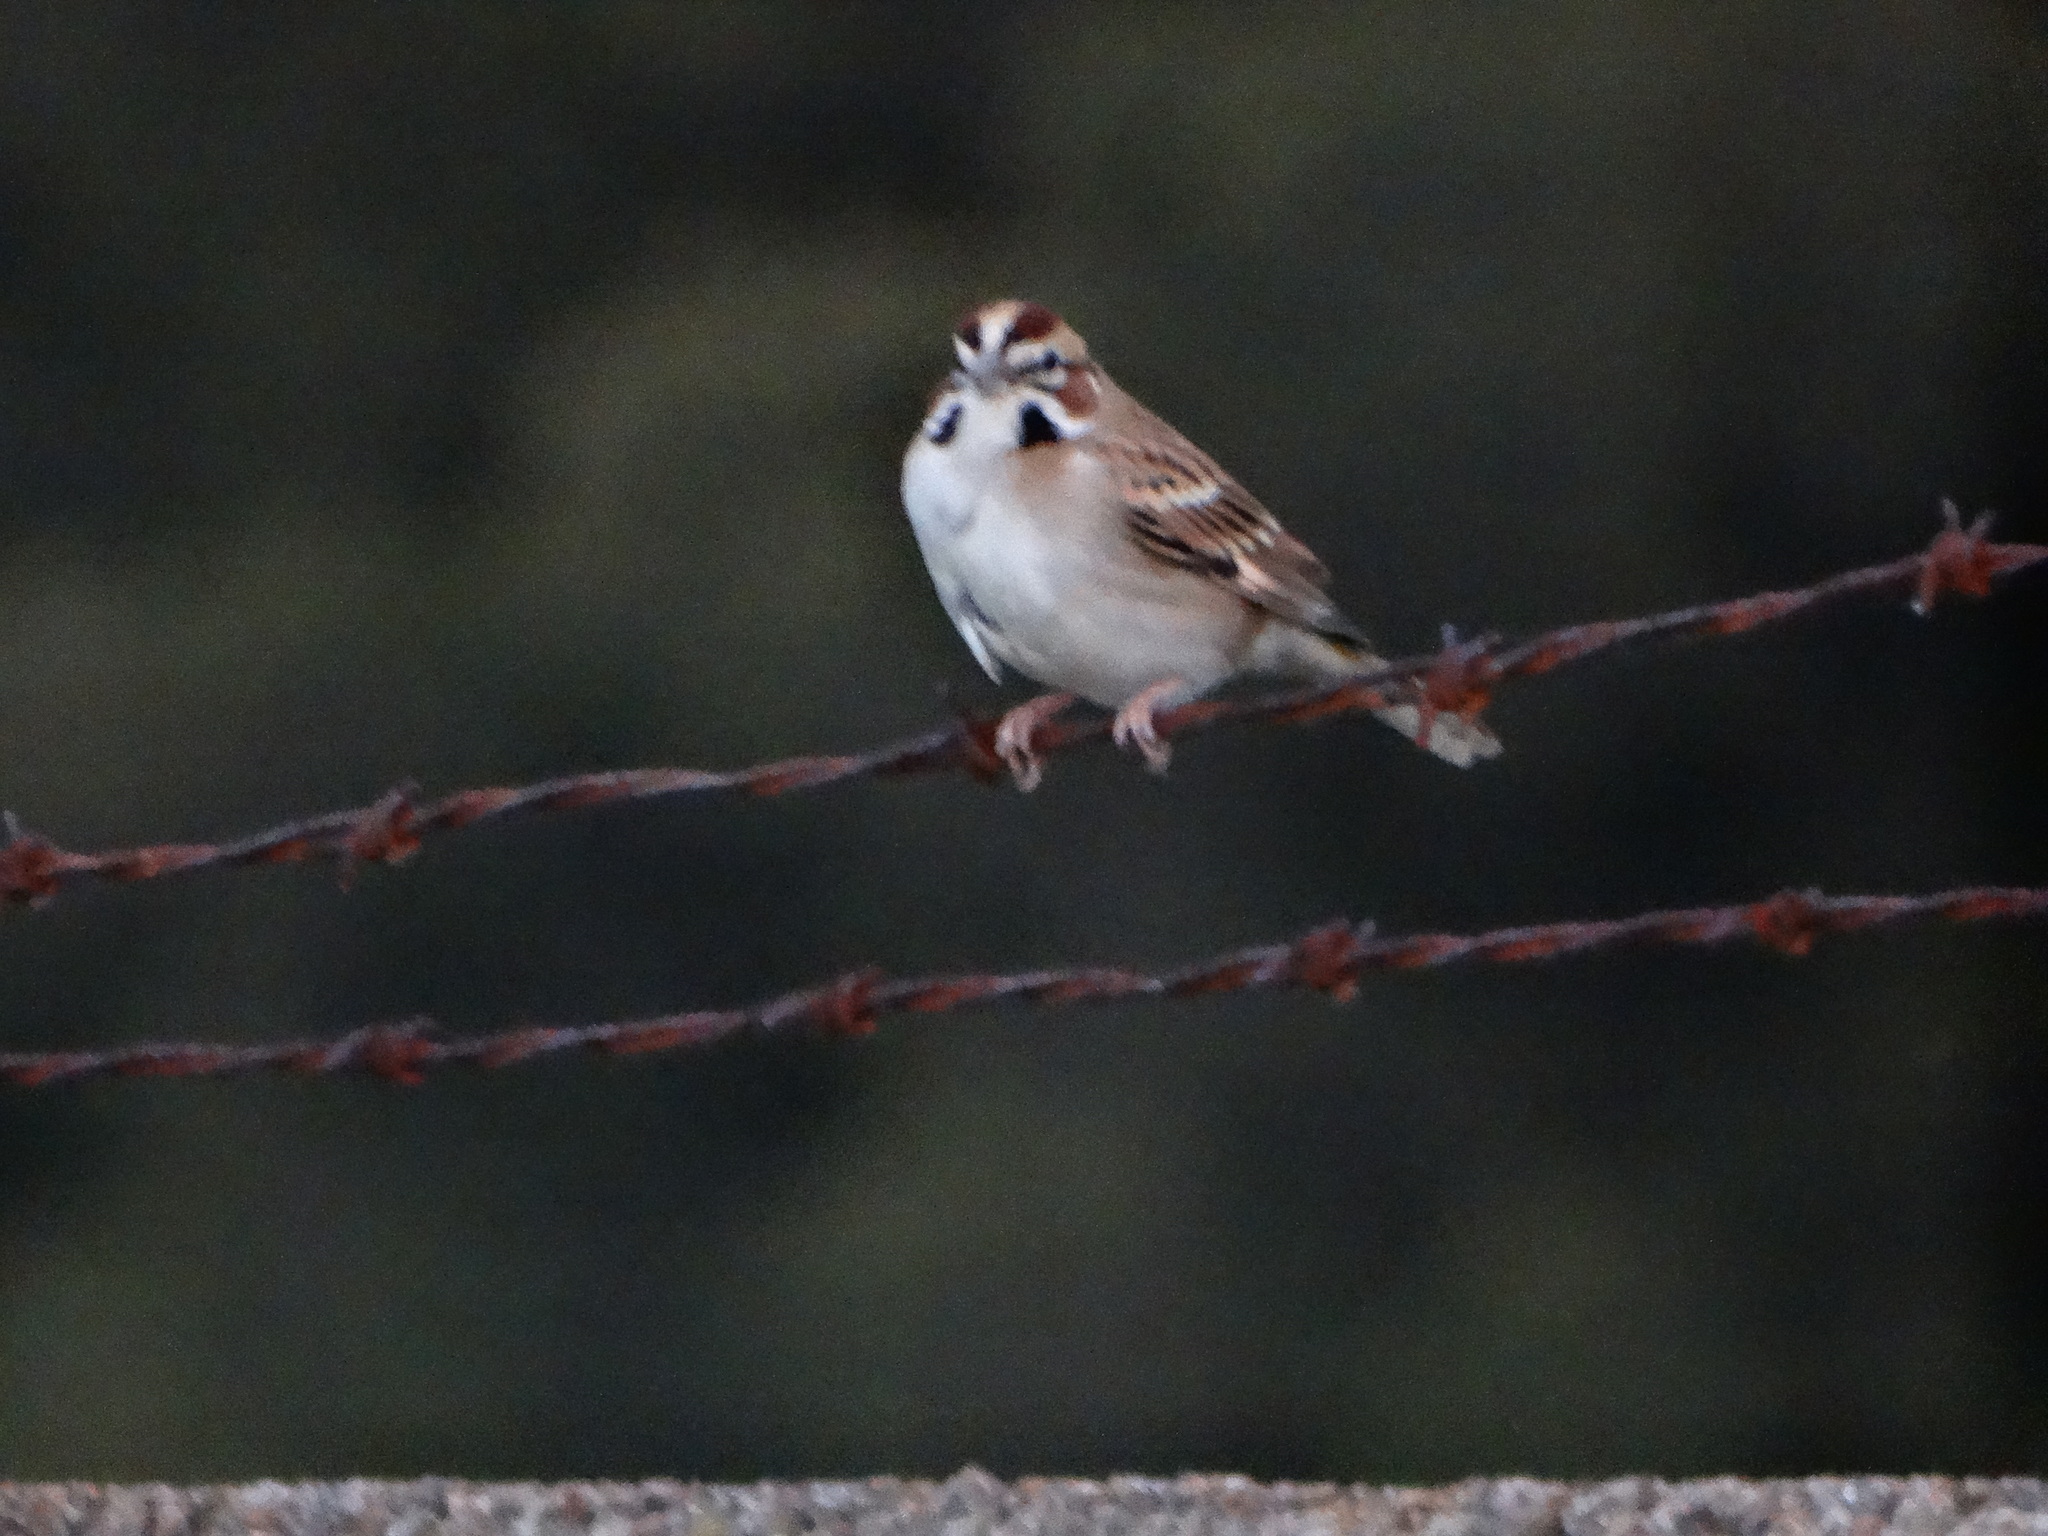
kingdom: Animalia
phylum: Chordata
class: Aves
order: Passeriformes
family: Passerellidae
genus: Chondestes
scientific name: Chondestes grammacus
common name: Lark sparrow
